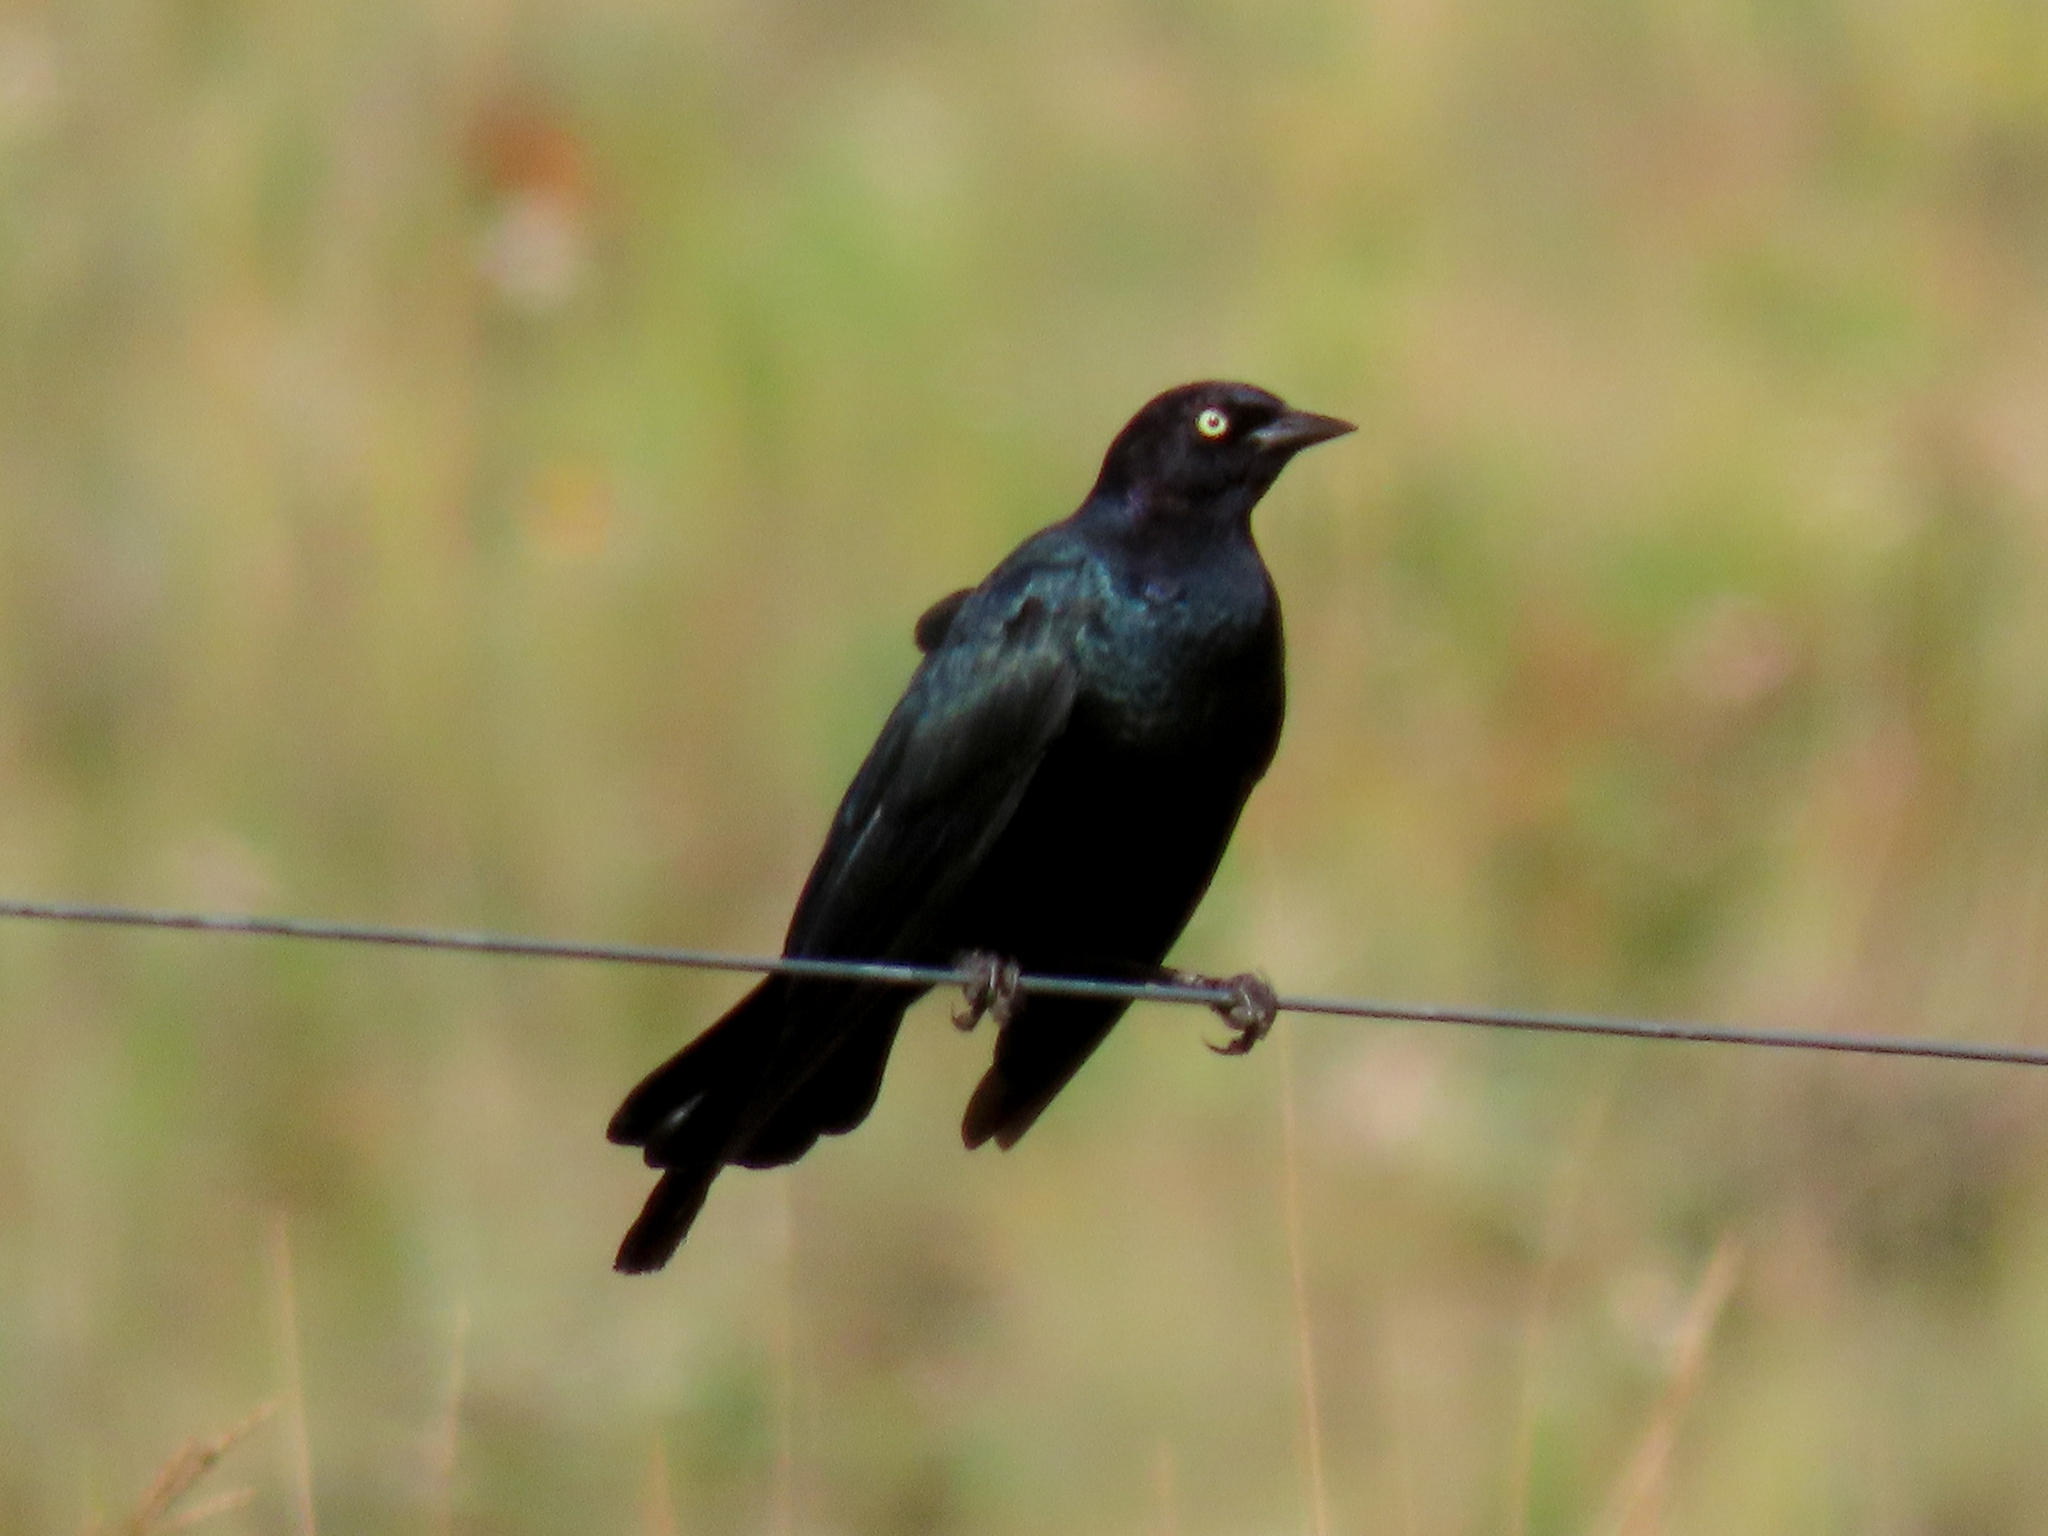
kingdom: Animalia
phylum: Chordata
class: Aves
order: Passeriformes
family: Icteridae
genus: Euphagus
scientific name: Euphagus cyanocephalus
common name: Brewer's blackbird
